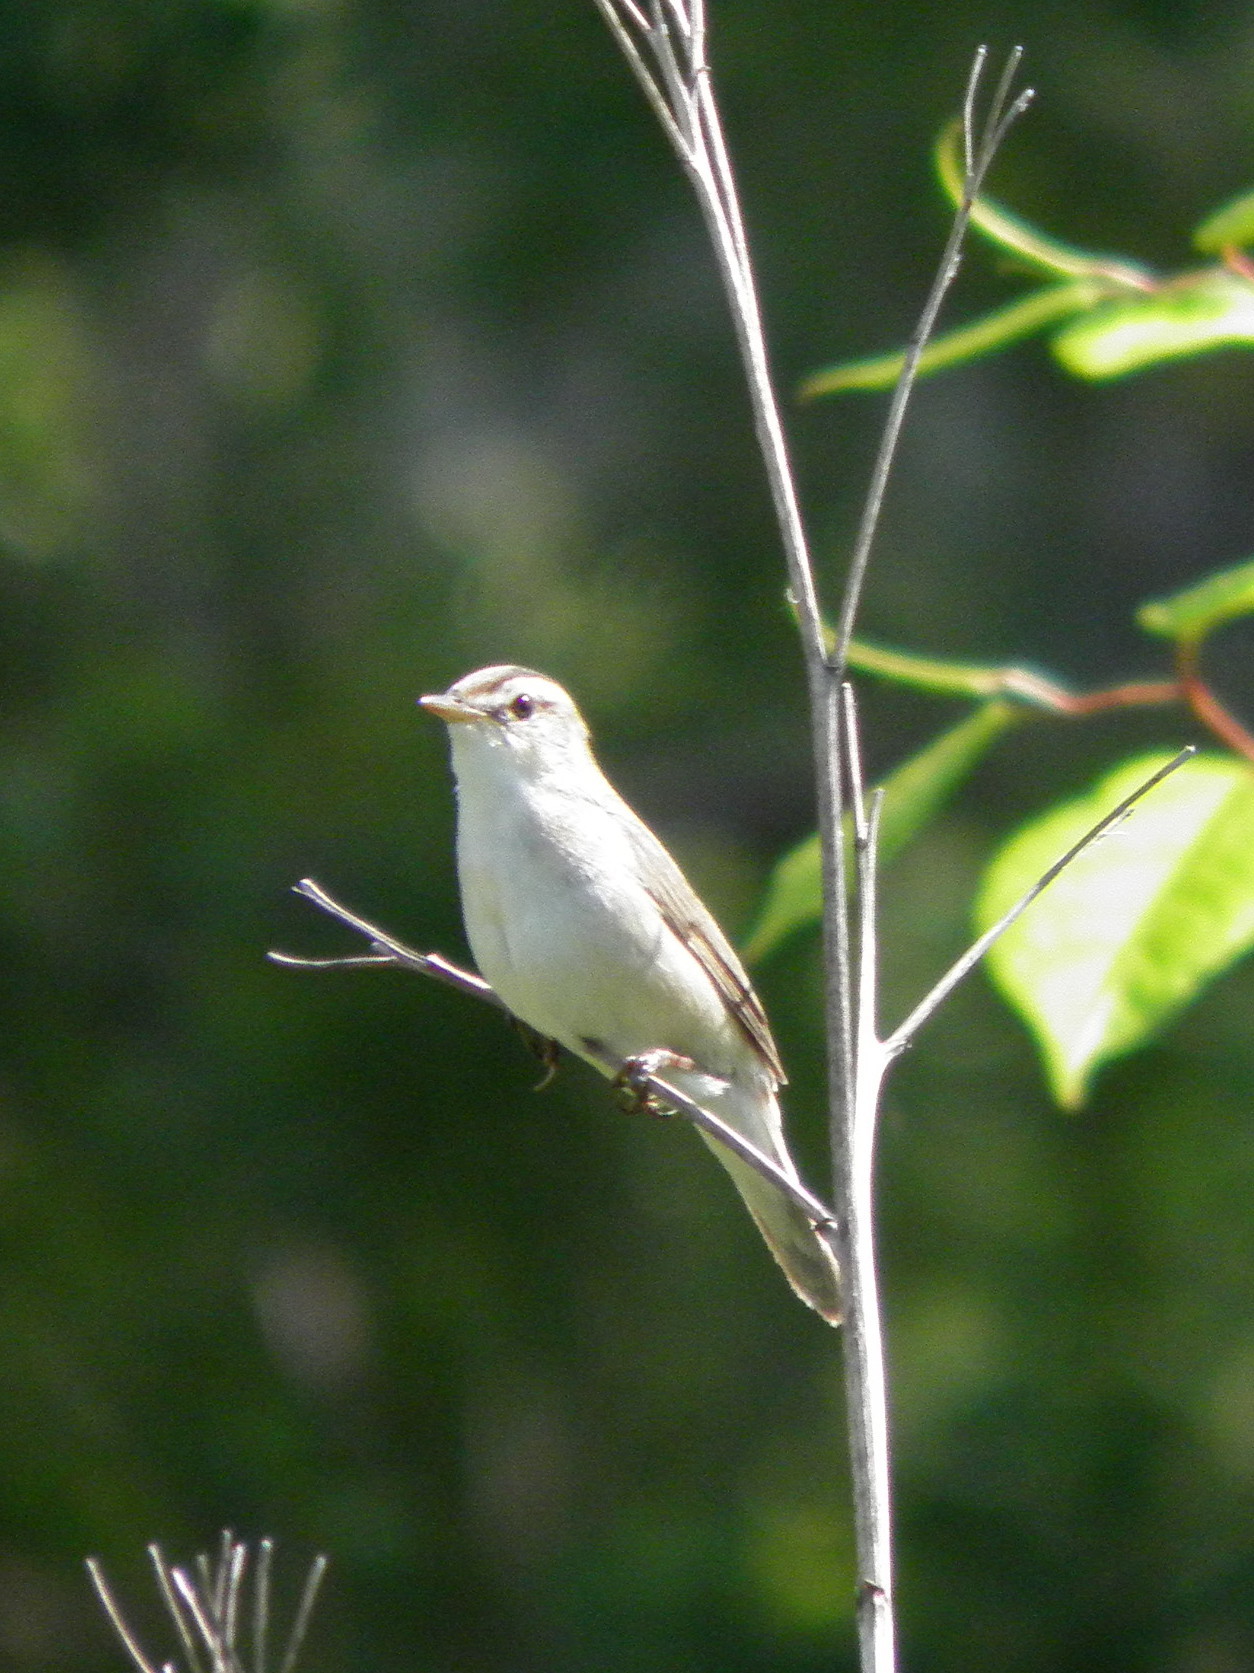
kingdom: Animalia
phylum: Chordata
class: Aves
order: Passeriformes
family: Acrocephalidae
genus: Acrocephalus
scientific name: Acrocephalus bistrigiceps
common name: Black-browed reed warbler
